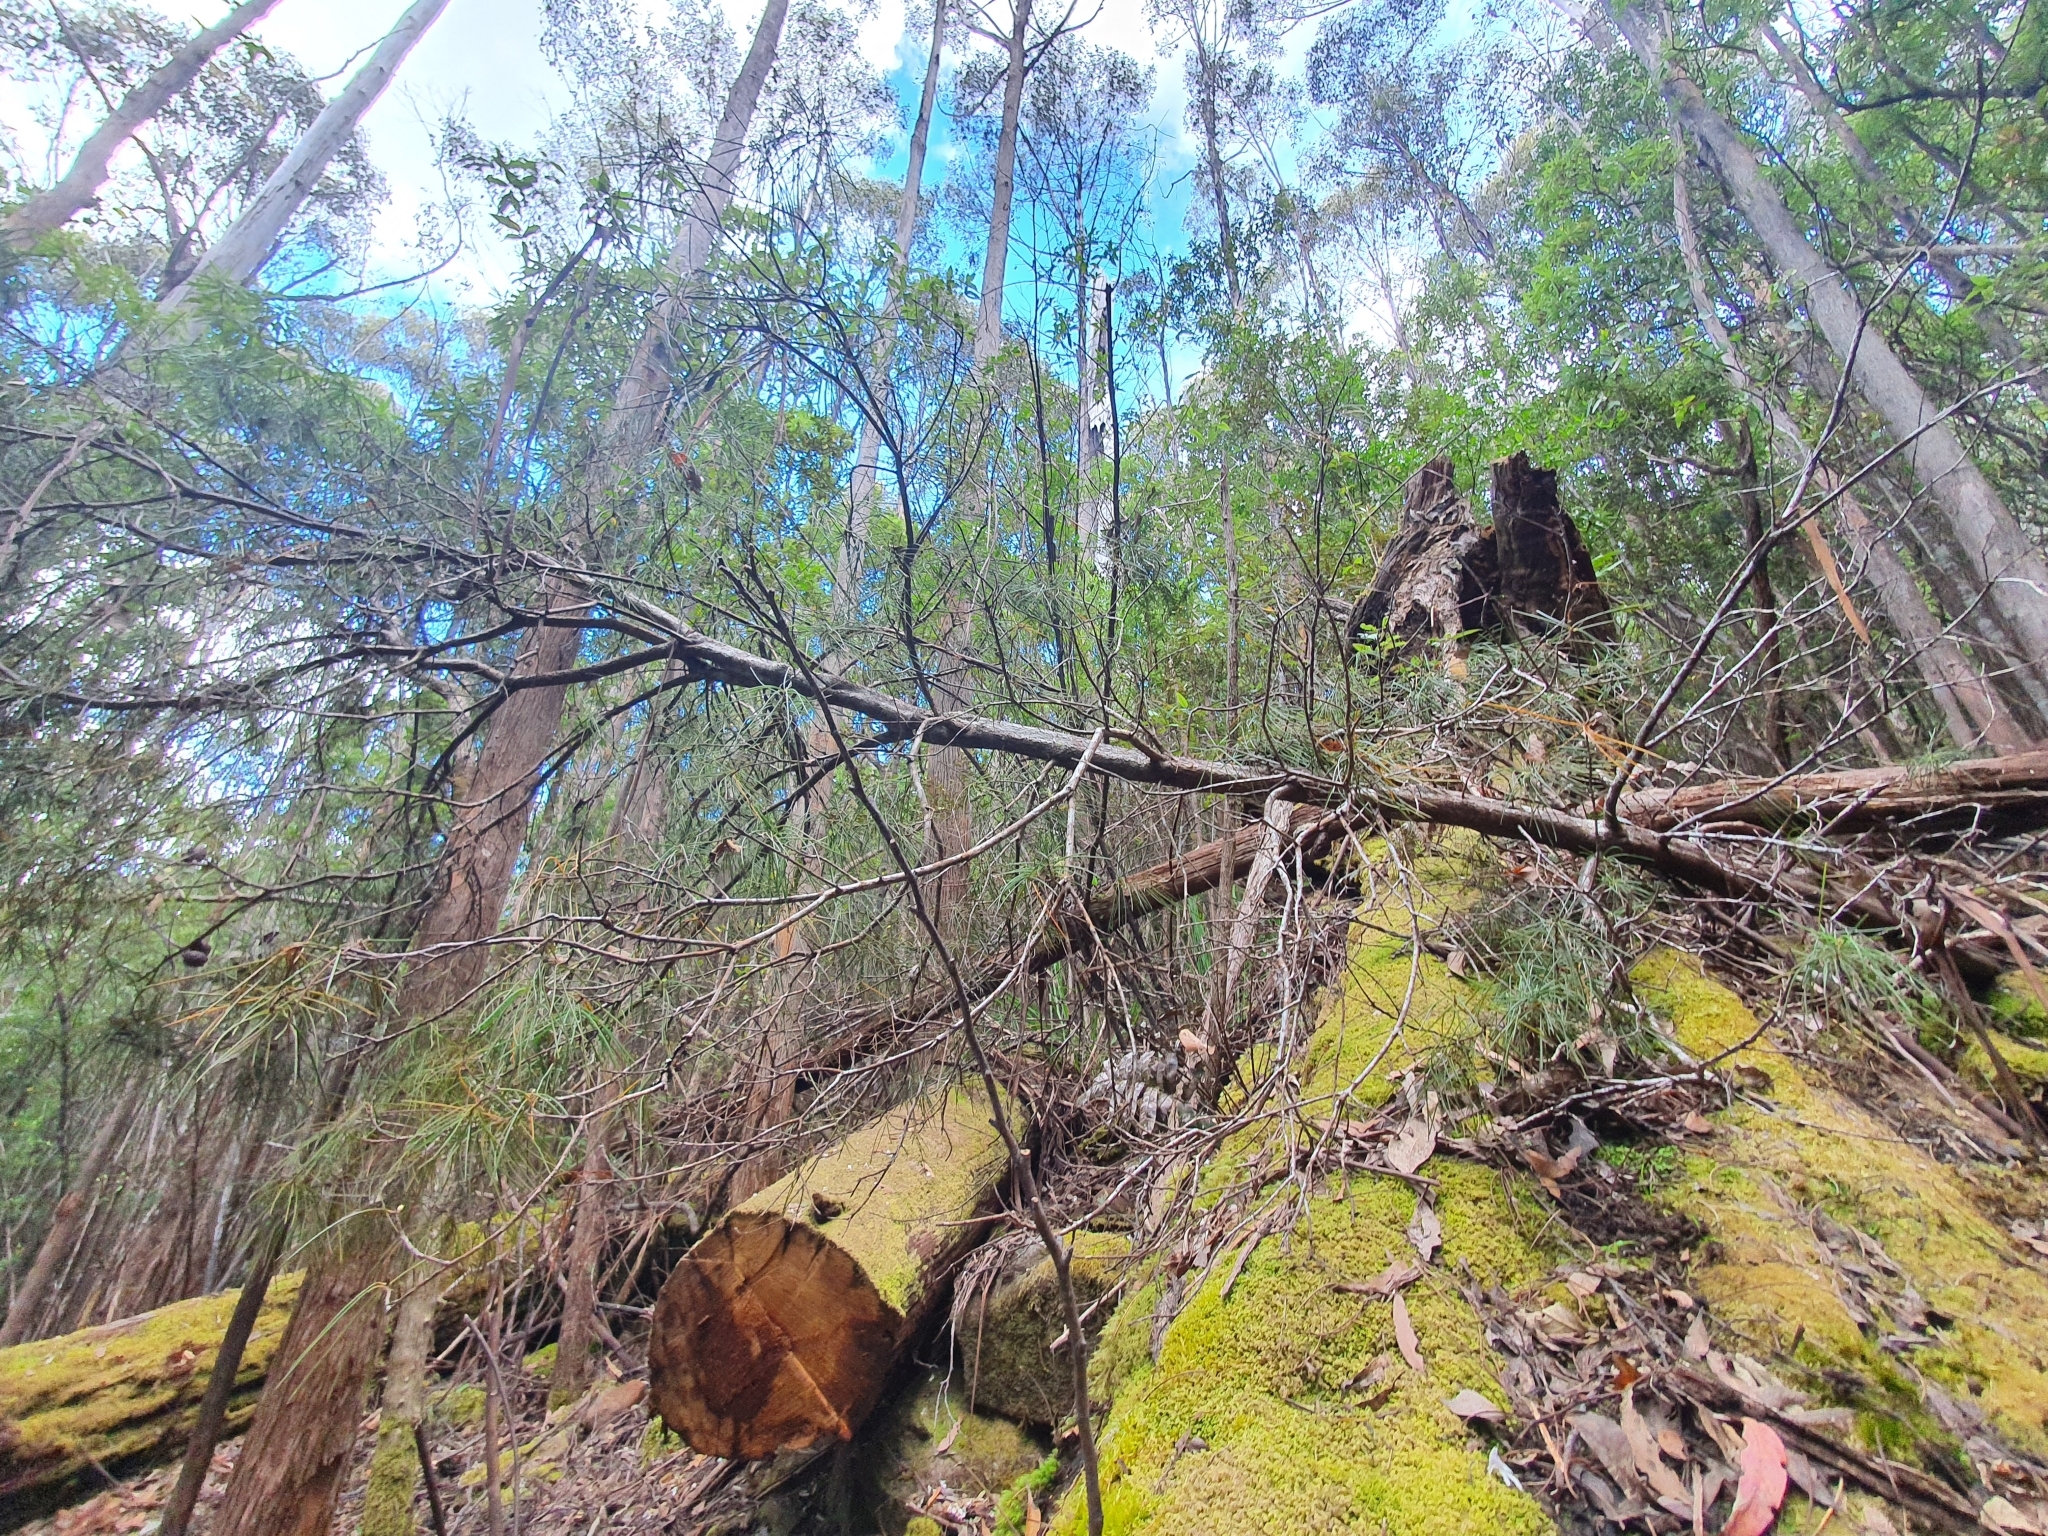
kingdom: Plantae
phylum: Tracheophyta
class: Magnoliopsida
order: Proteales
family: Proteaceae
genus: Hakea
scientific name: Hakea lissosperma
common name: Mountain needlewood
